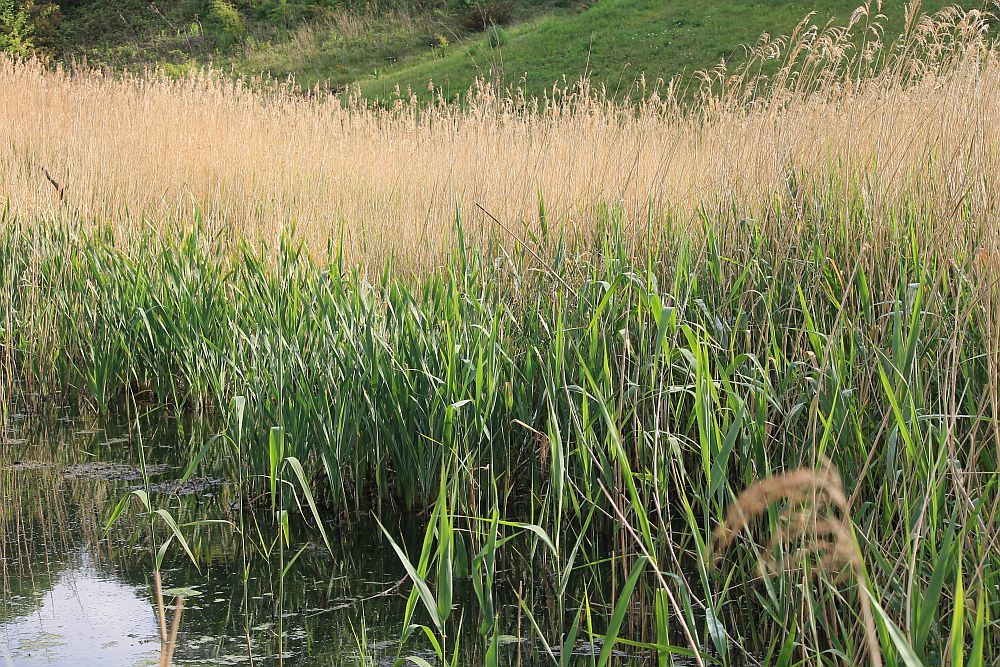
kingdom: Plantae
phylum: Tracheophyta
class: Liliopsida
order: Poales
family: Poaceae
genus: Phragmites
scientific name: Phragmites australis
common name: Common reed
